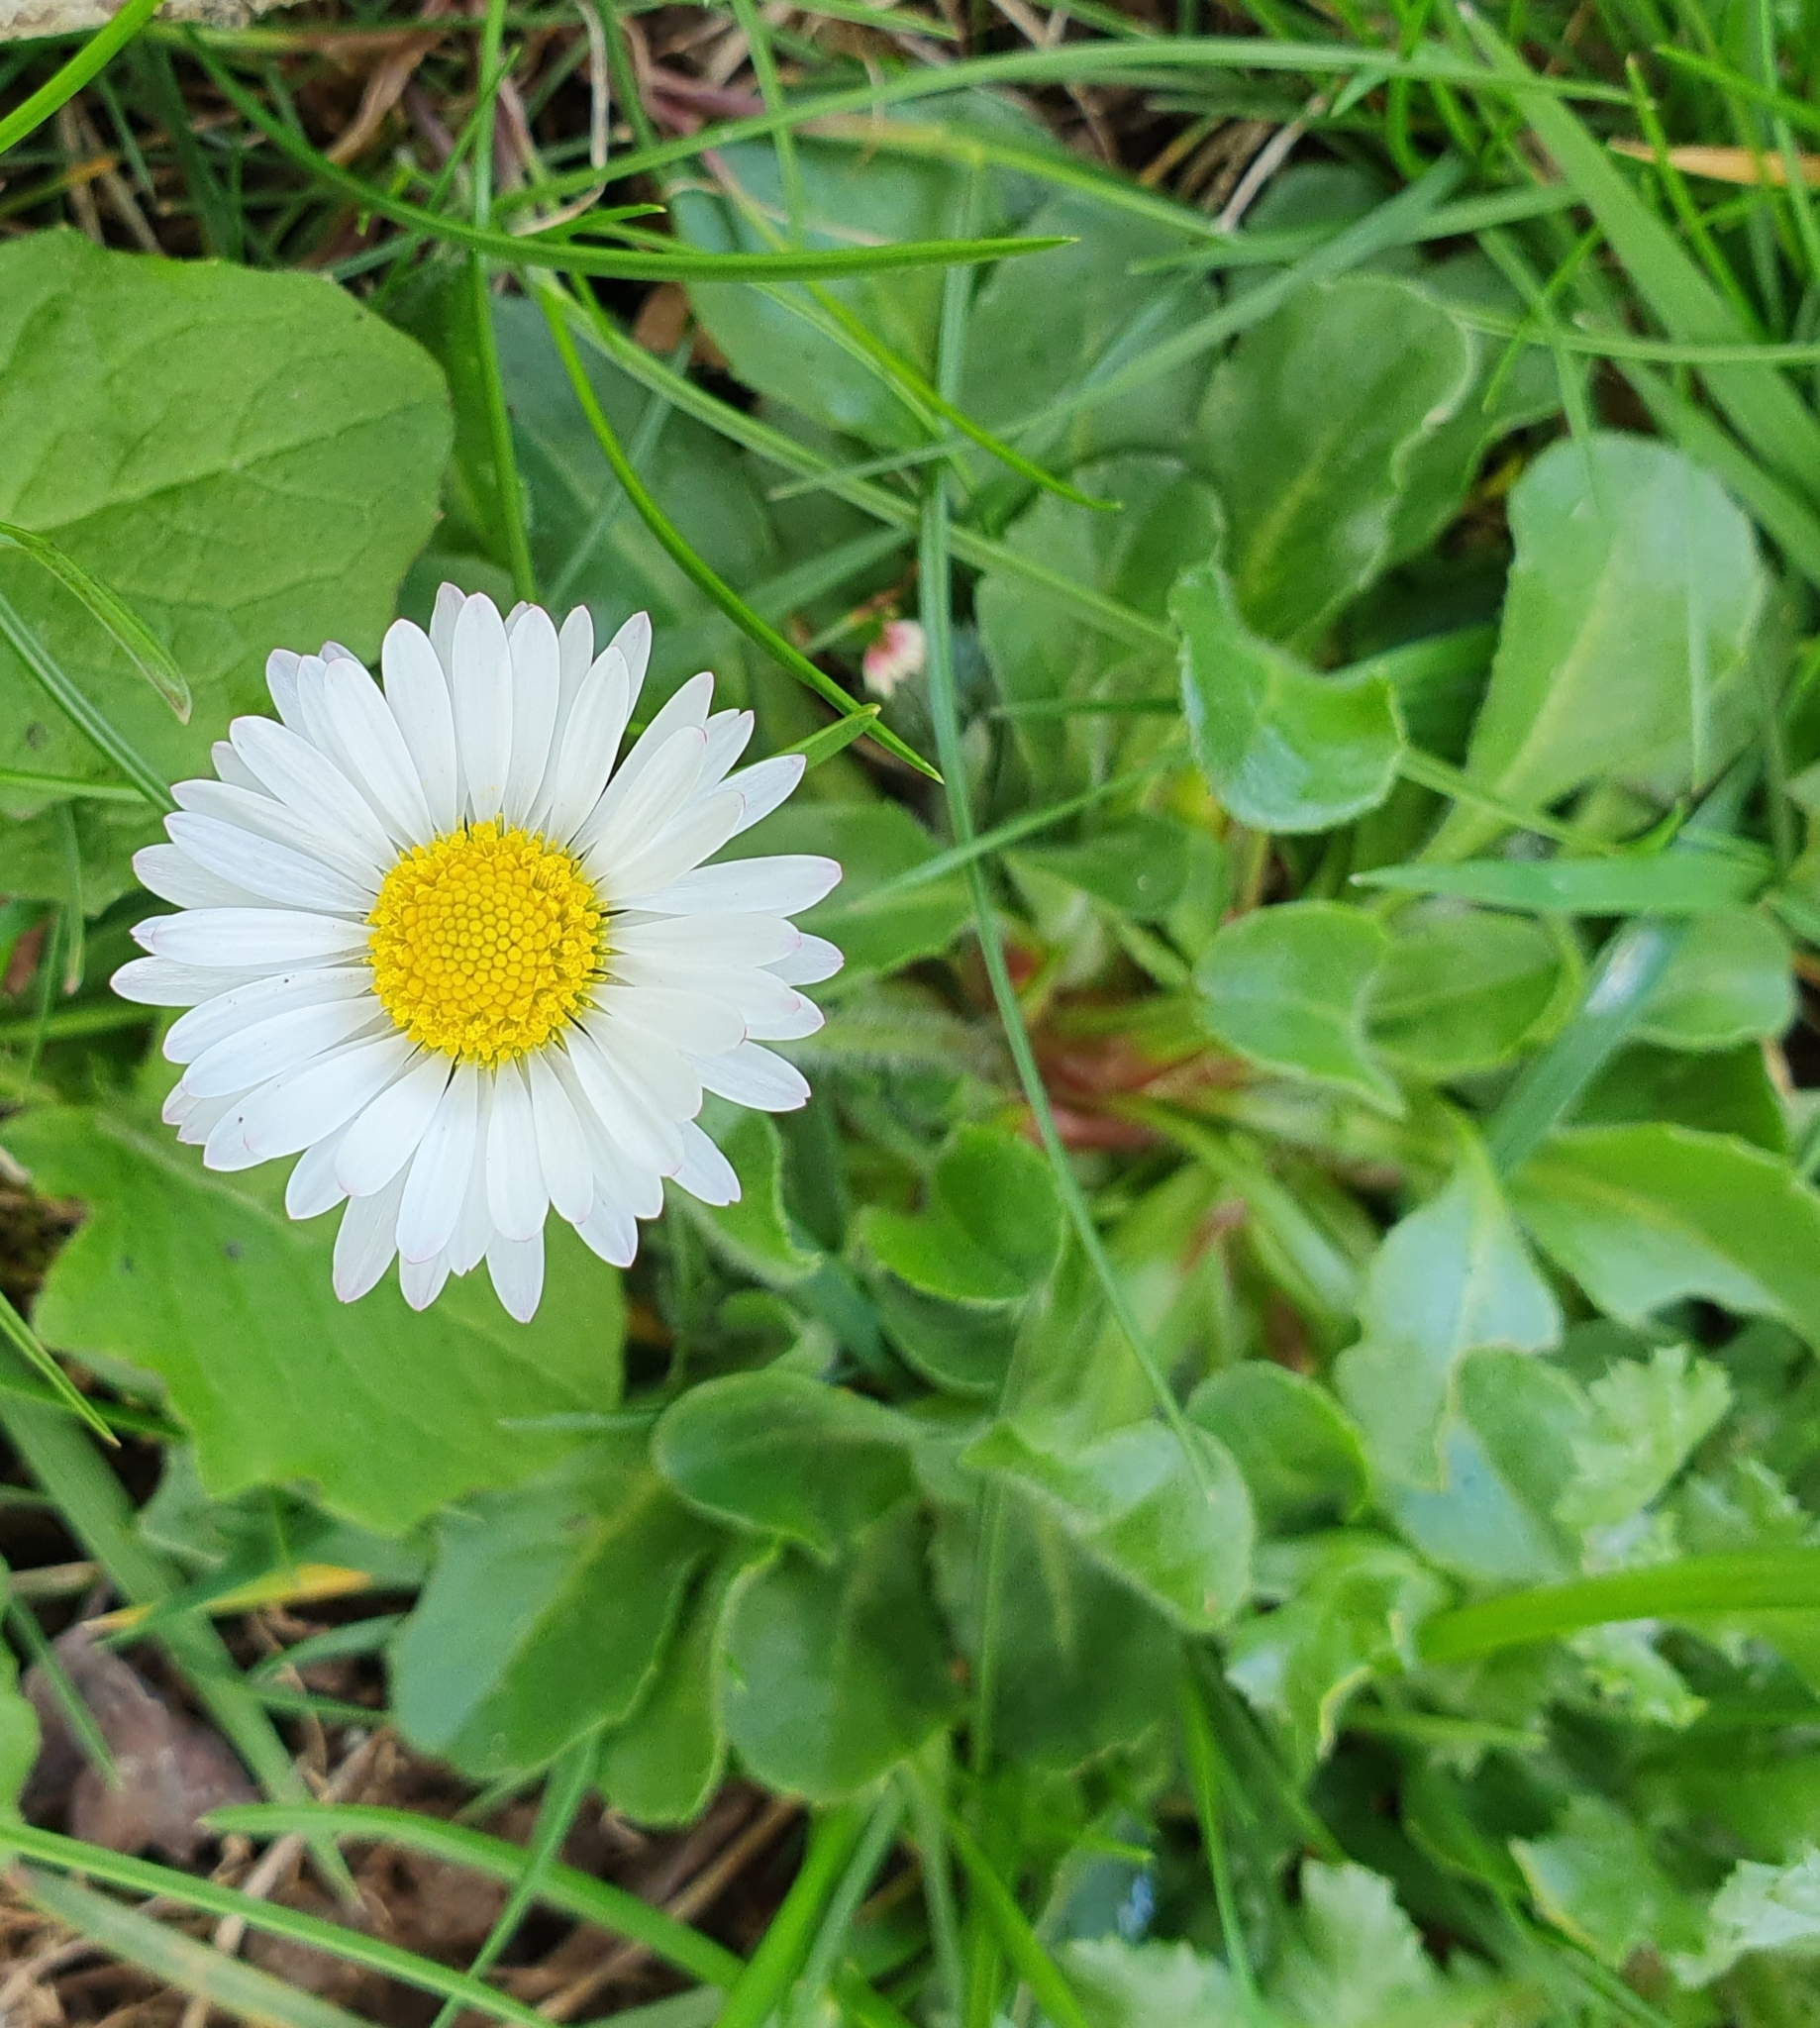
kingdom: Plantae
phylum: Tracheophyta
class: Magnoliopsida
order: Asterales
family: Asteraceae
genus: Bellis
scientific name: Bellis perennis
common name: Lawndaisy
